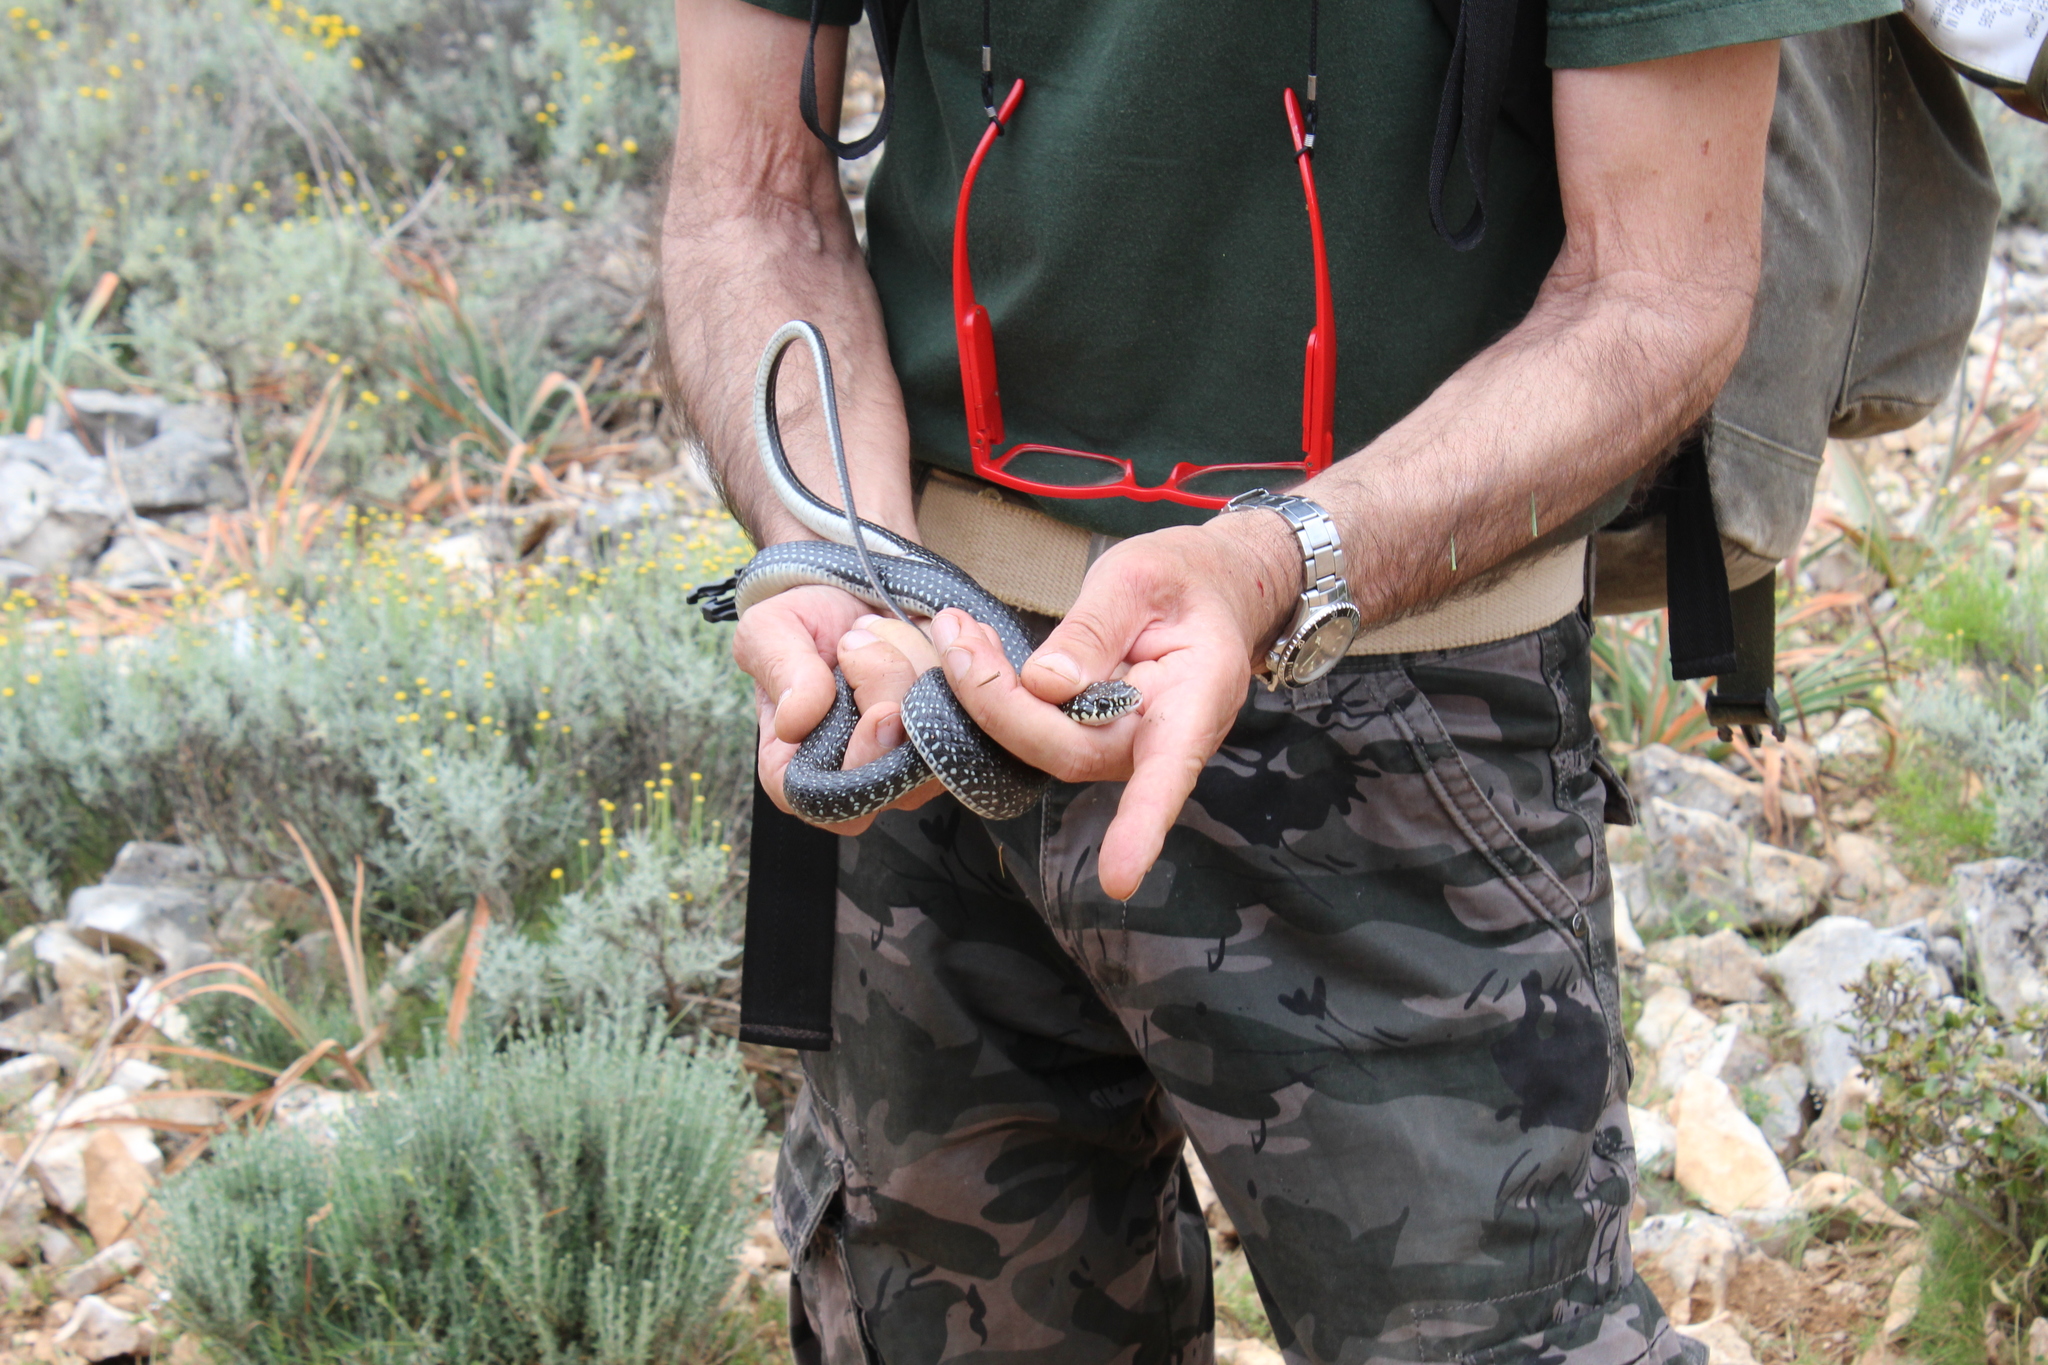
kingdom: Animalia
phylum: Chordata
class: Squamata
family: Colubridae
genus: Hierophis
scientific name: Hierophis viridiflavus
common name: Green whip snake
